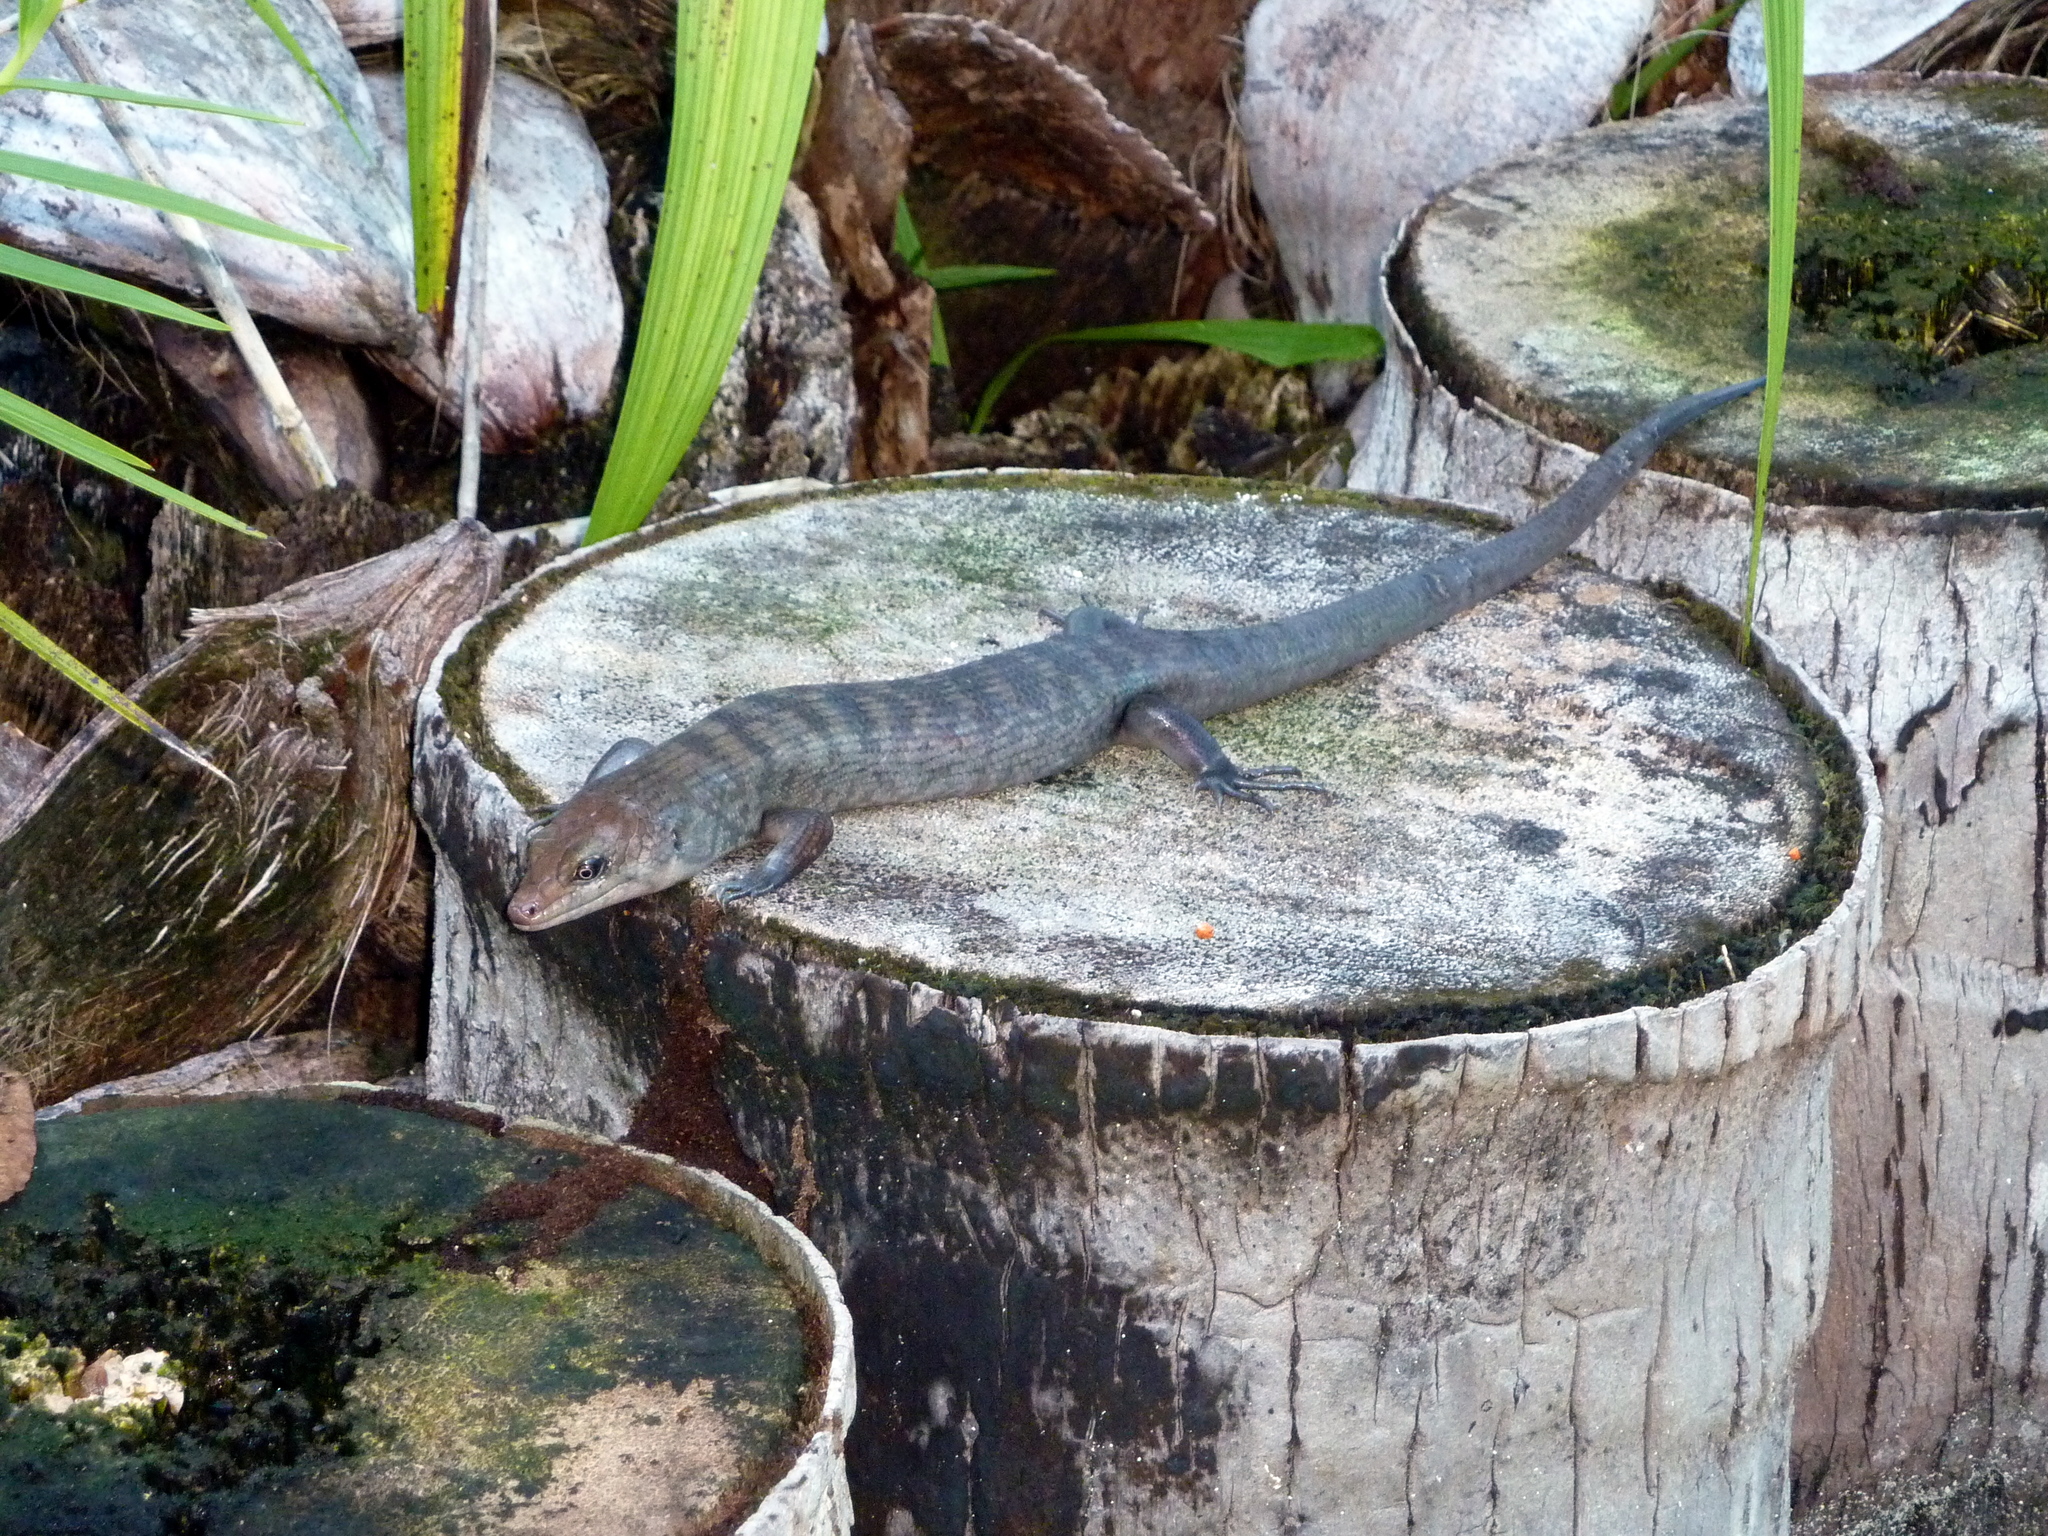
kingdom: Animalia
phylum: Chordata
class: Squamata
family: Scincidae
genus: Eugongylus
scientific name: Eugongylus albofasciolatus
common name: White-striped cape skink
